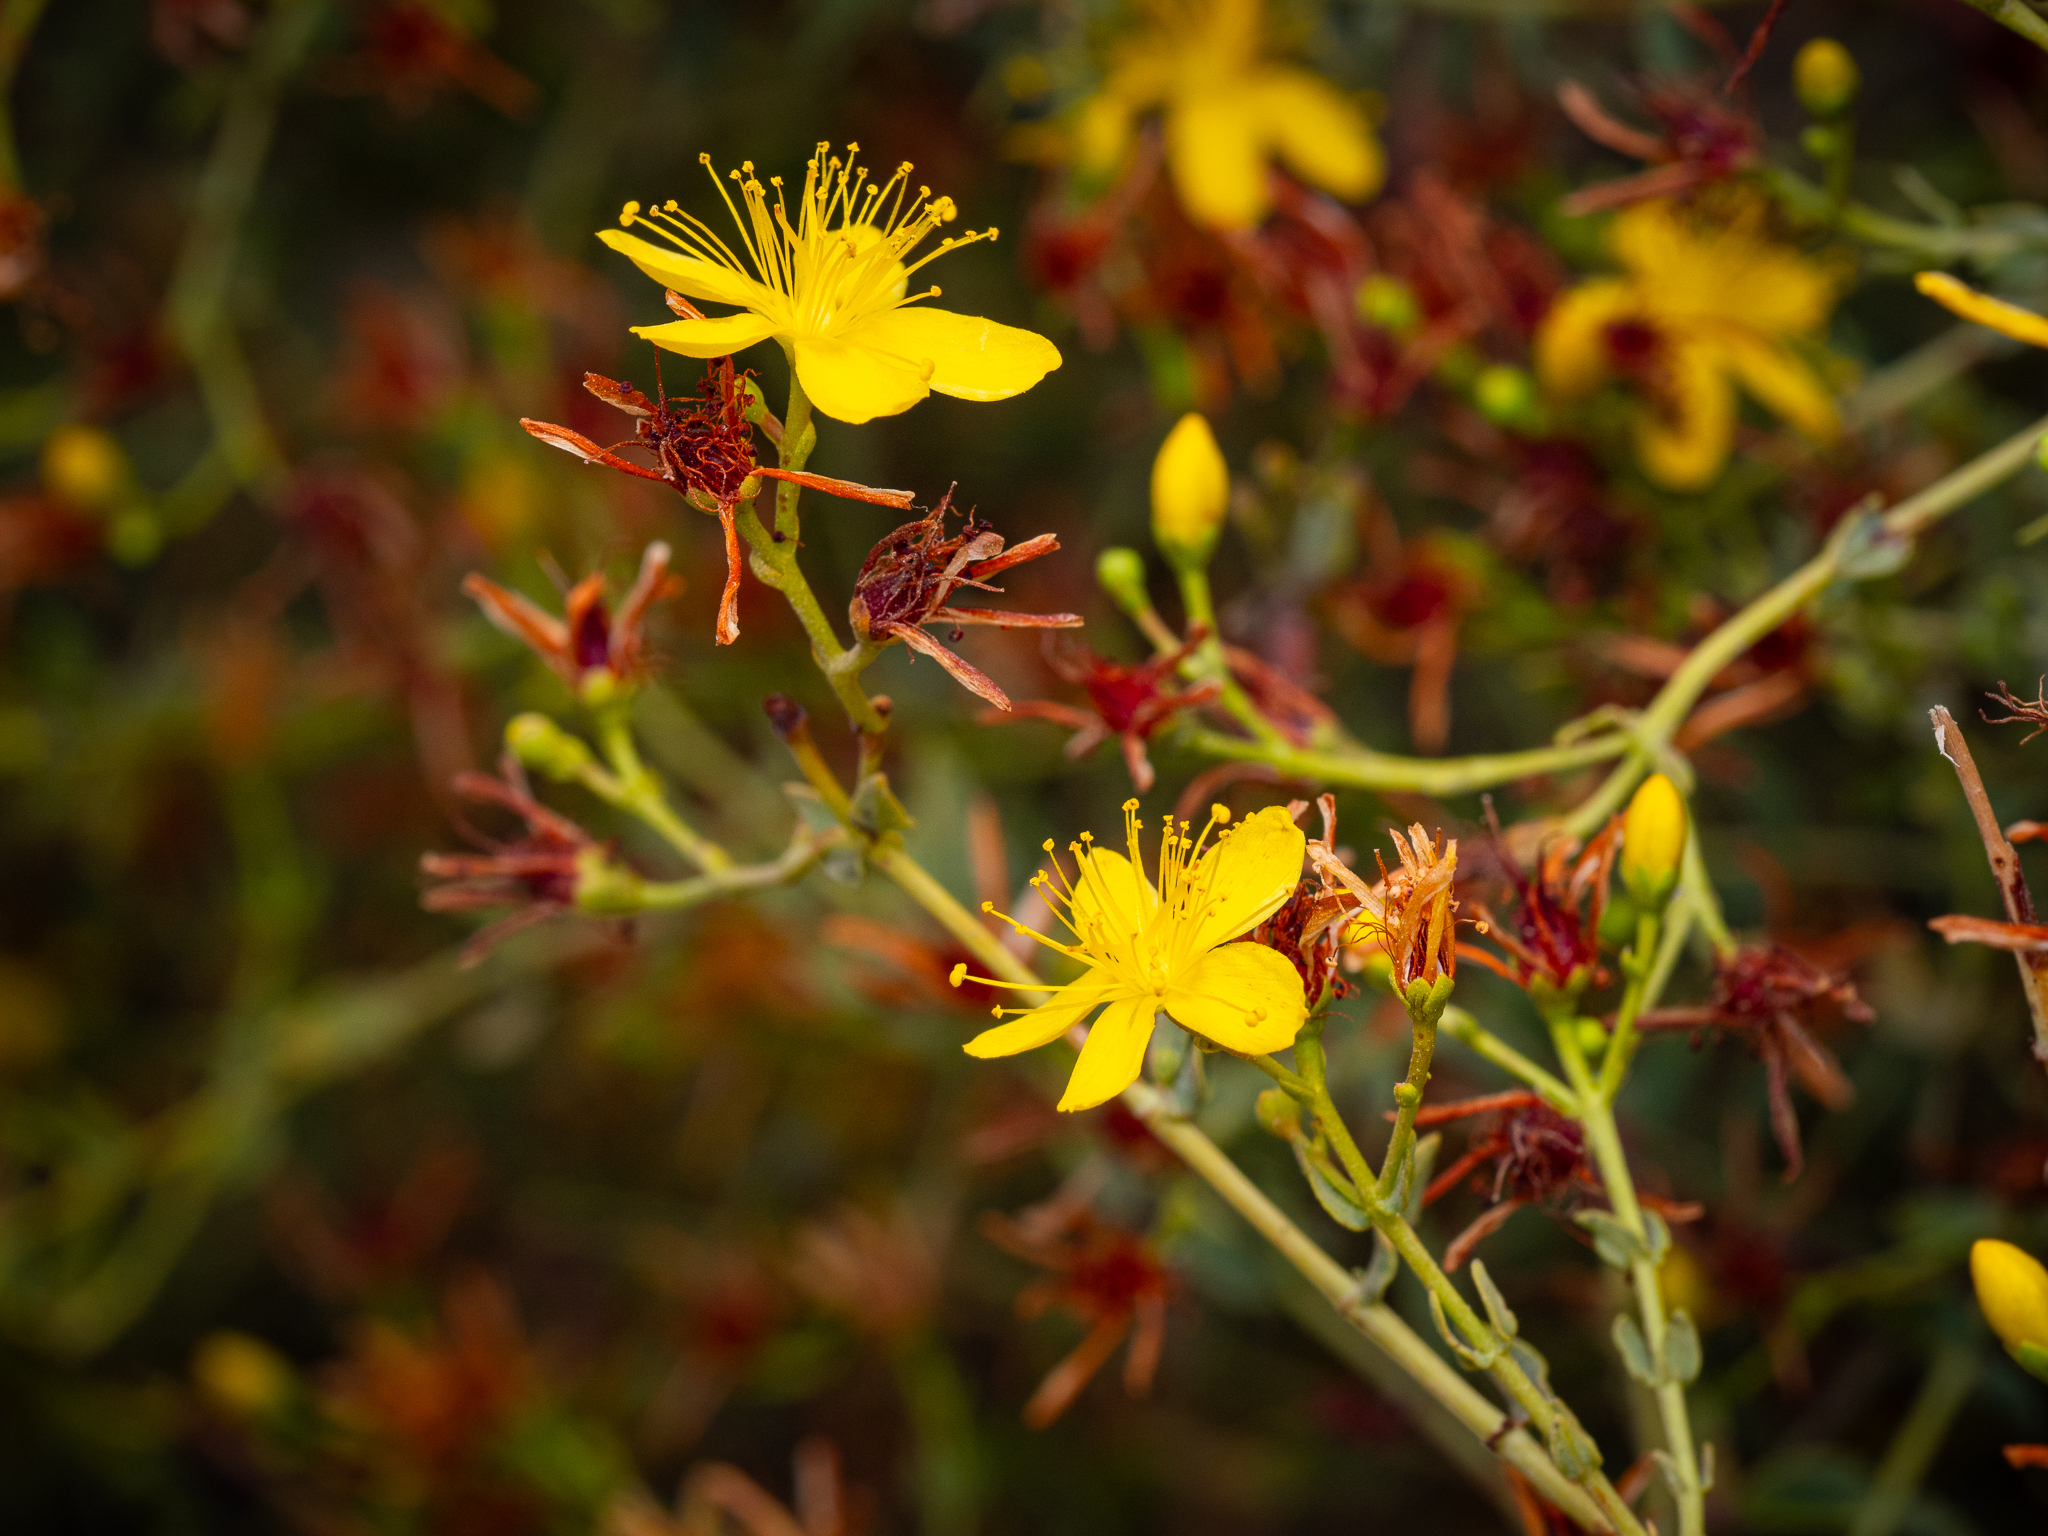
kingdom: Plantae
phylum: Tracheophyta
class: Magnoliopsida
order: Malpighiales
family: Hypericaceae
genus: Hypericum
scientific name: Hypericum triquetrifolium
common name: Tangled hypericum
